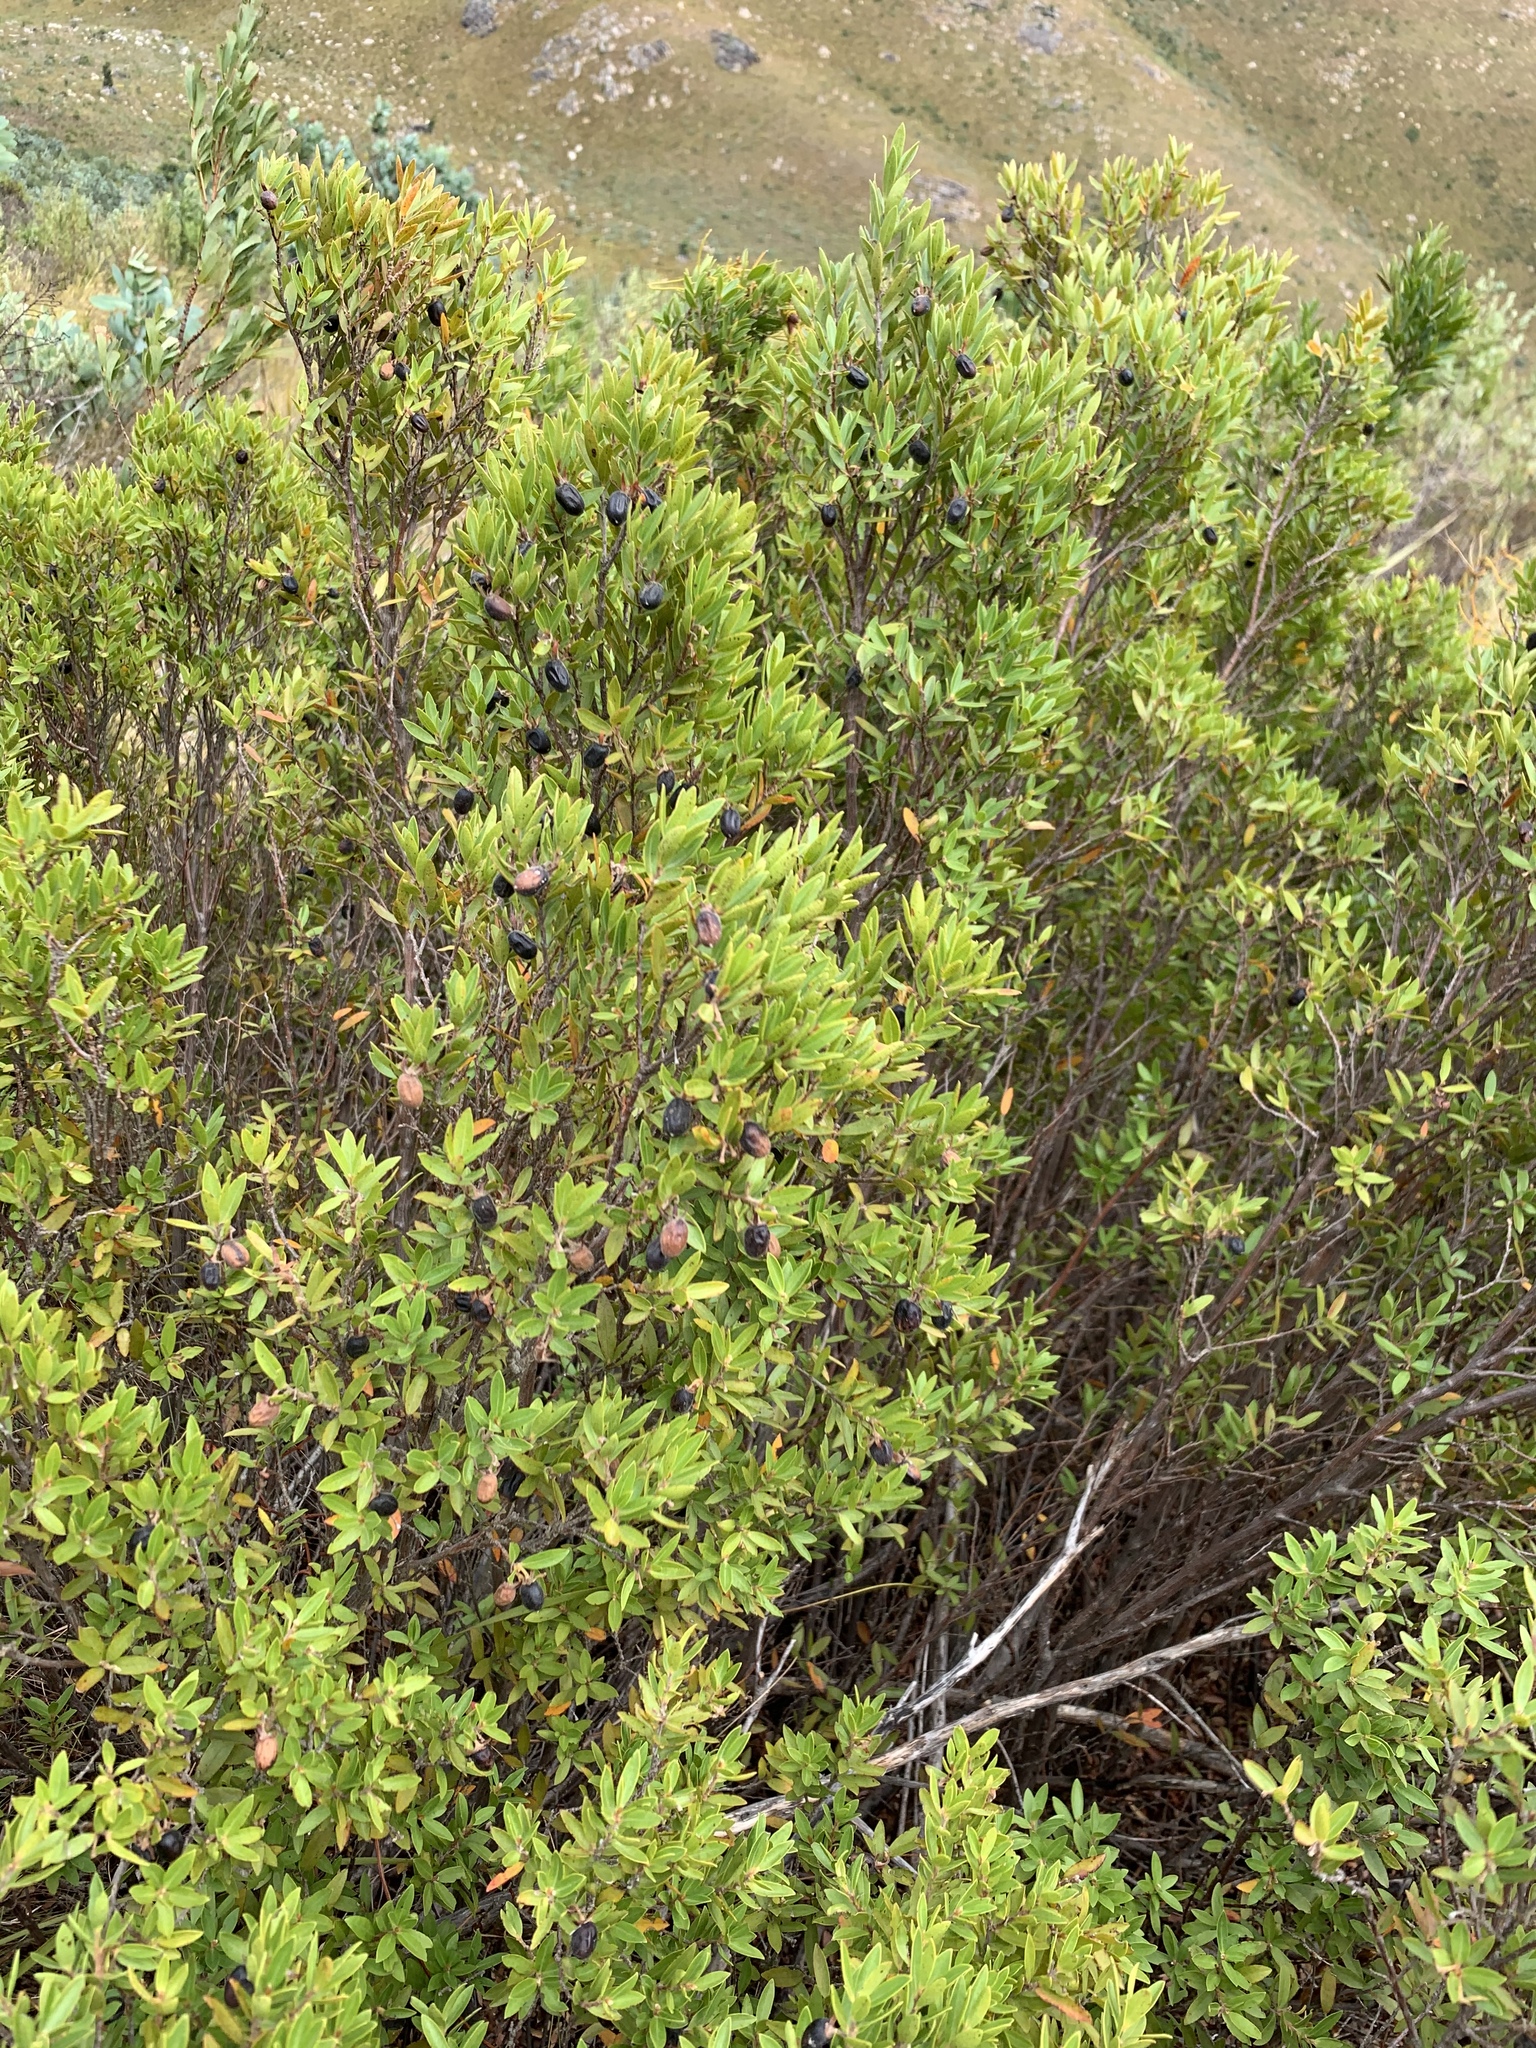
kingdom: Plantae
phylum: Tracheophyta
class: Magnoliopsida
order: Ericales
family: Ebenaceae
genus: Diospyros
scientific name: Diospyros glabra
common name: Fynbos star apple
